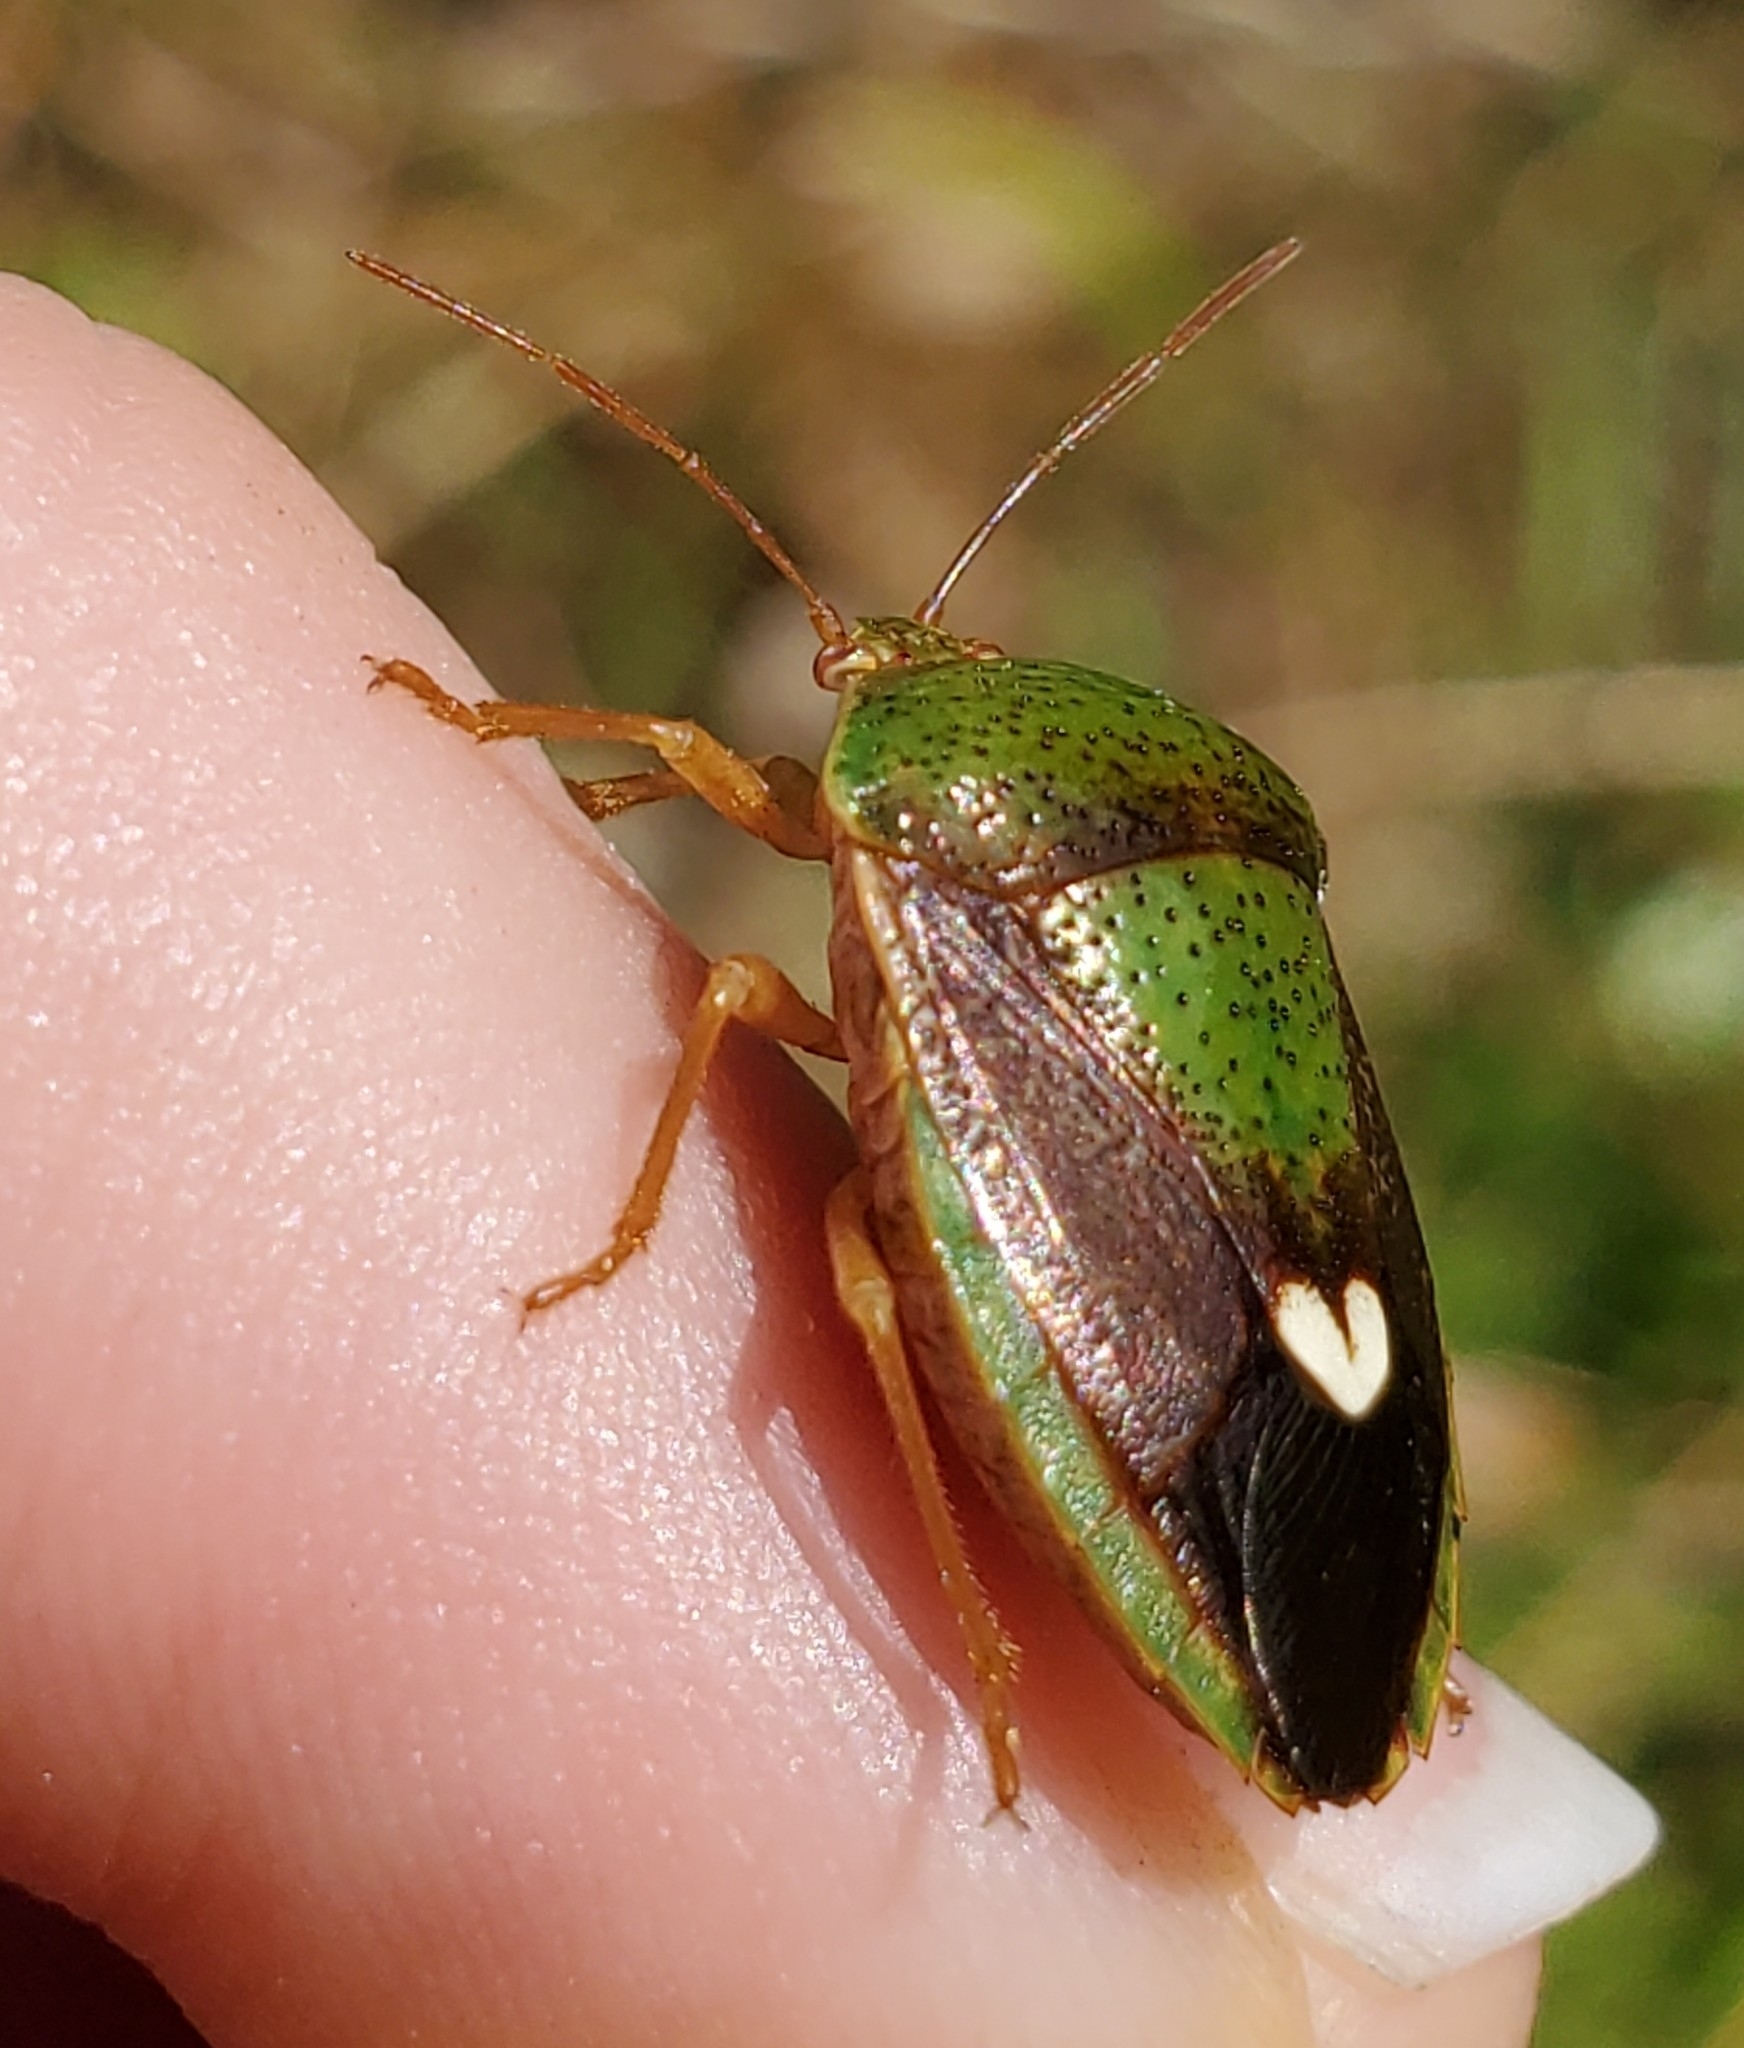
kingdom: Animalia
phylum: Arthropoda
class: Insecta
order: Hemiptera
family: Pentatomidae
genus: Edessa
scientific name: Edessa bifida
